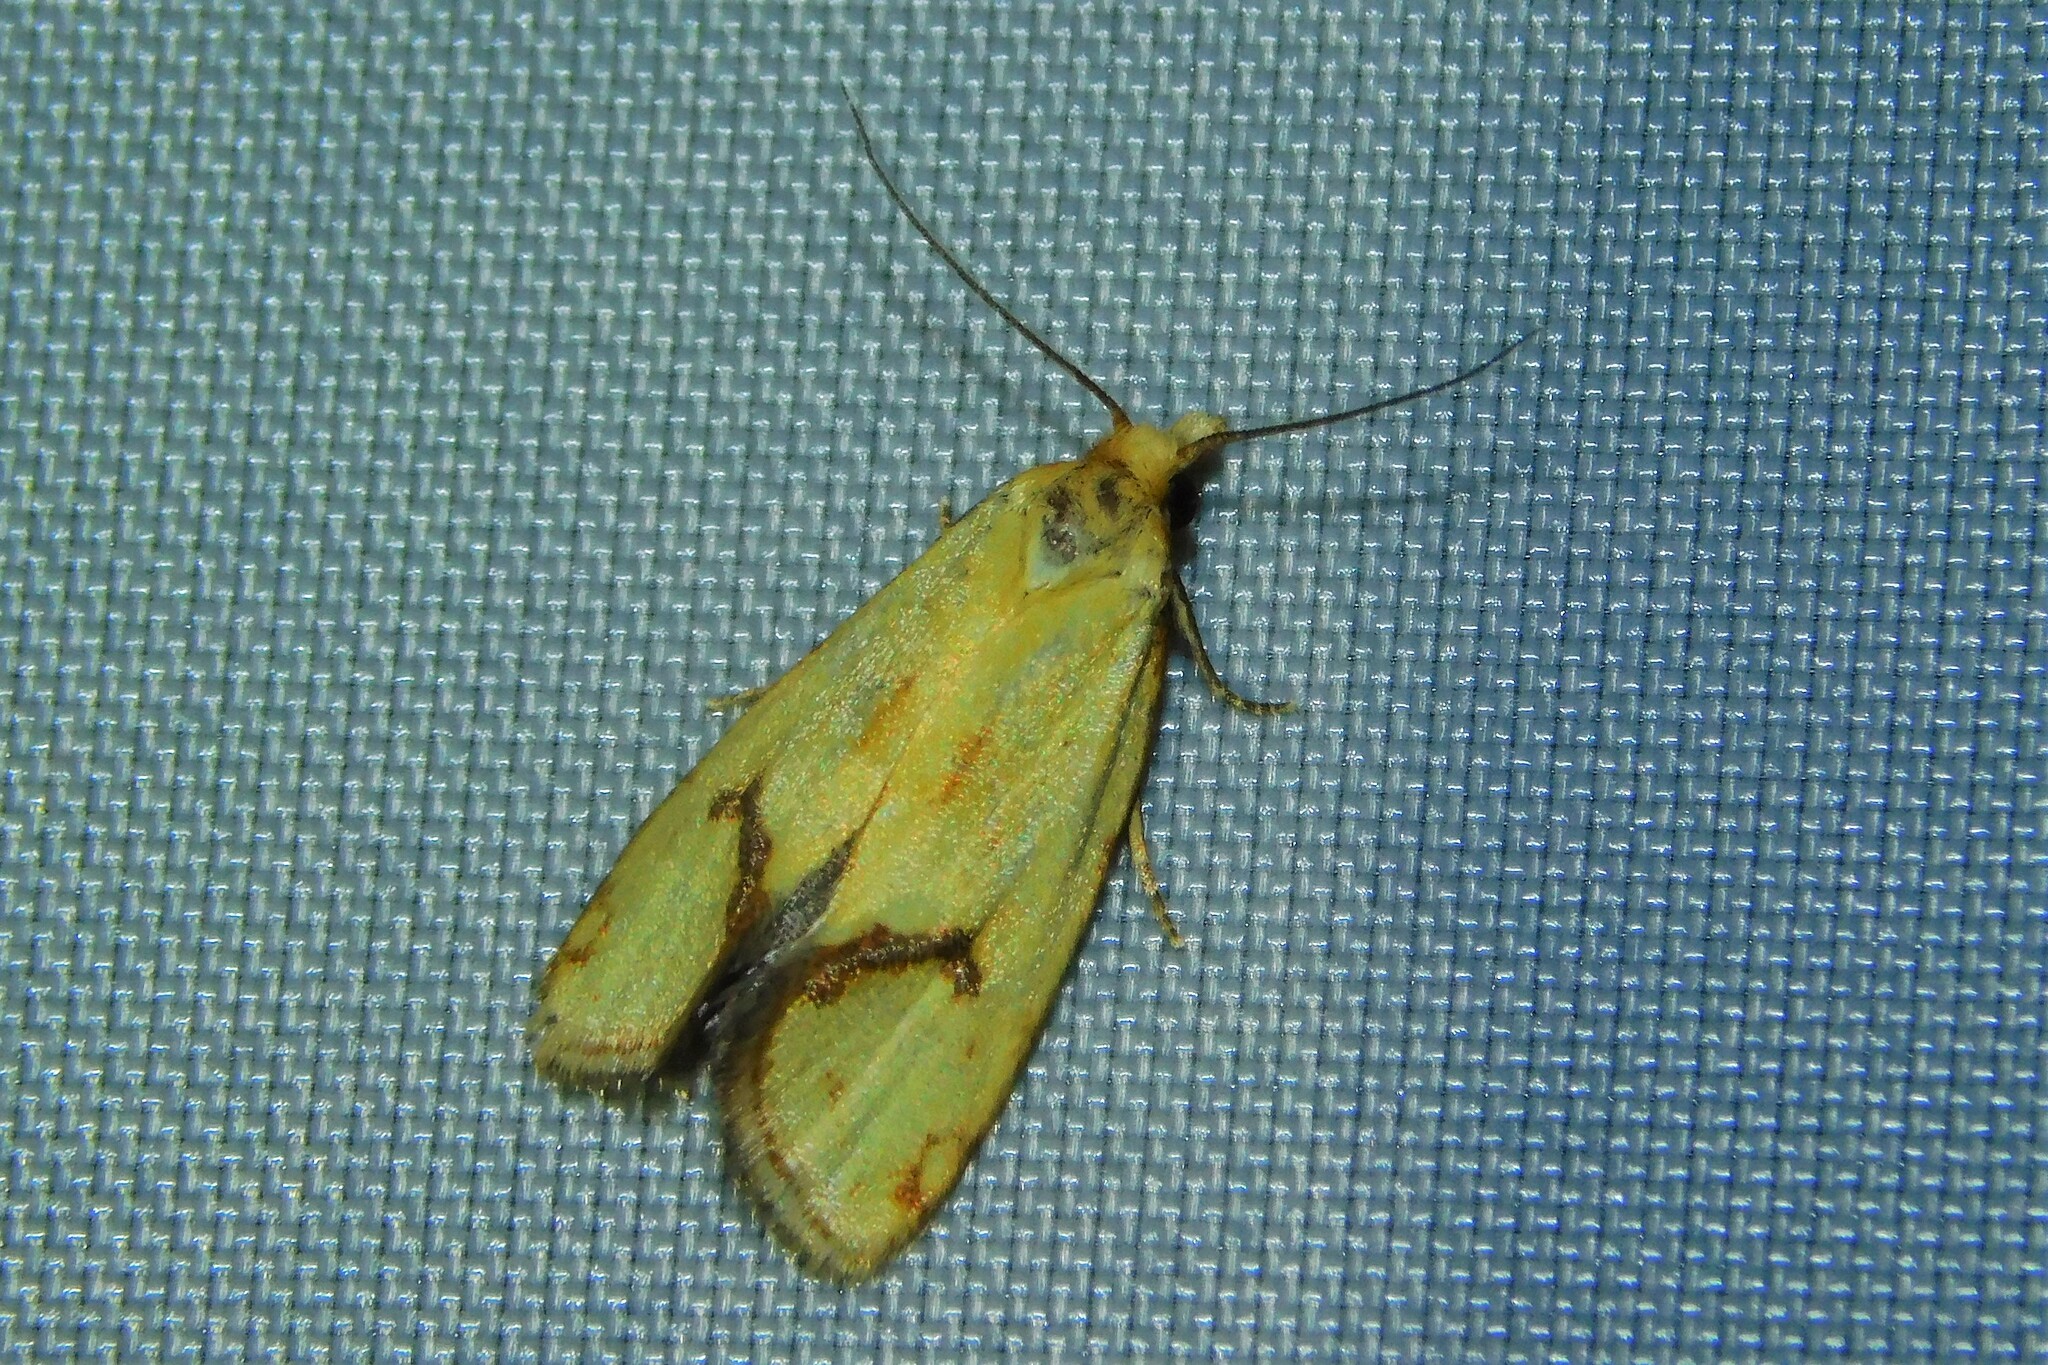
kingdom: Animalia
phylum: Arthropoda
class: Insecta
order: Lepidoptera
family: Tortricidae
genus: Agapeta
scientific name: Agapeta hamana
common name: Common yellow conch
